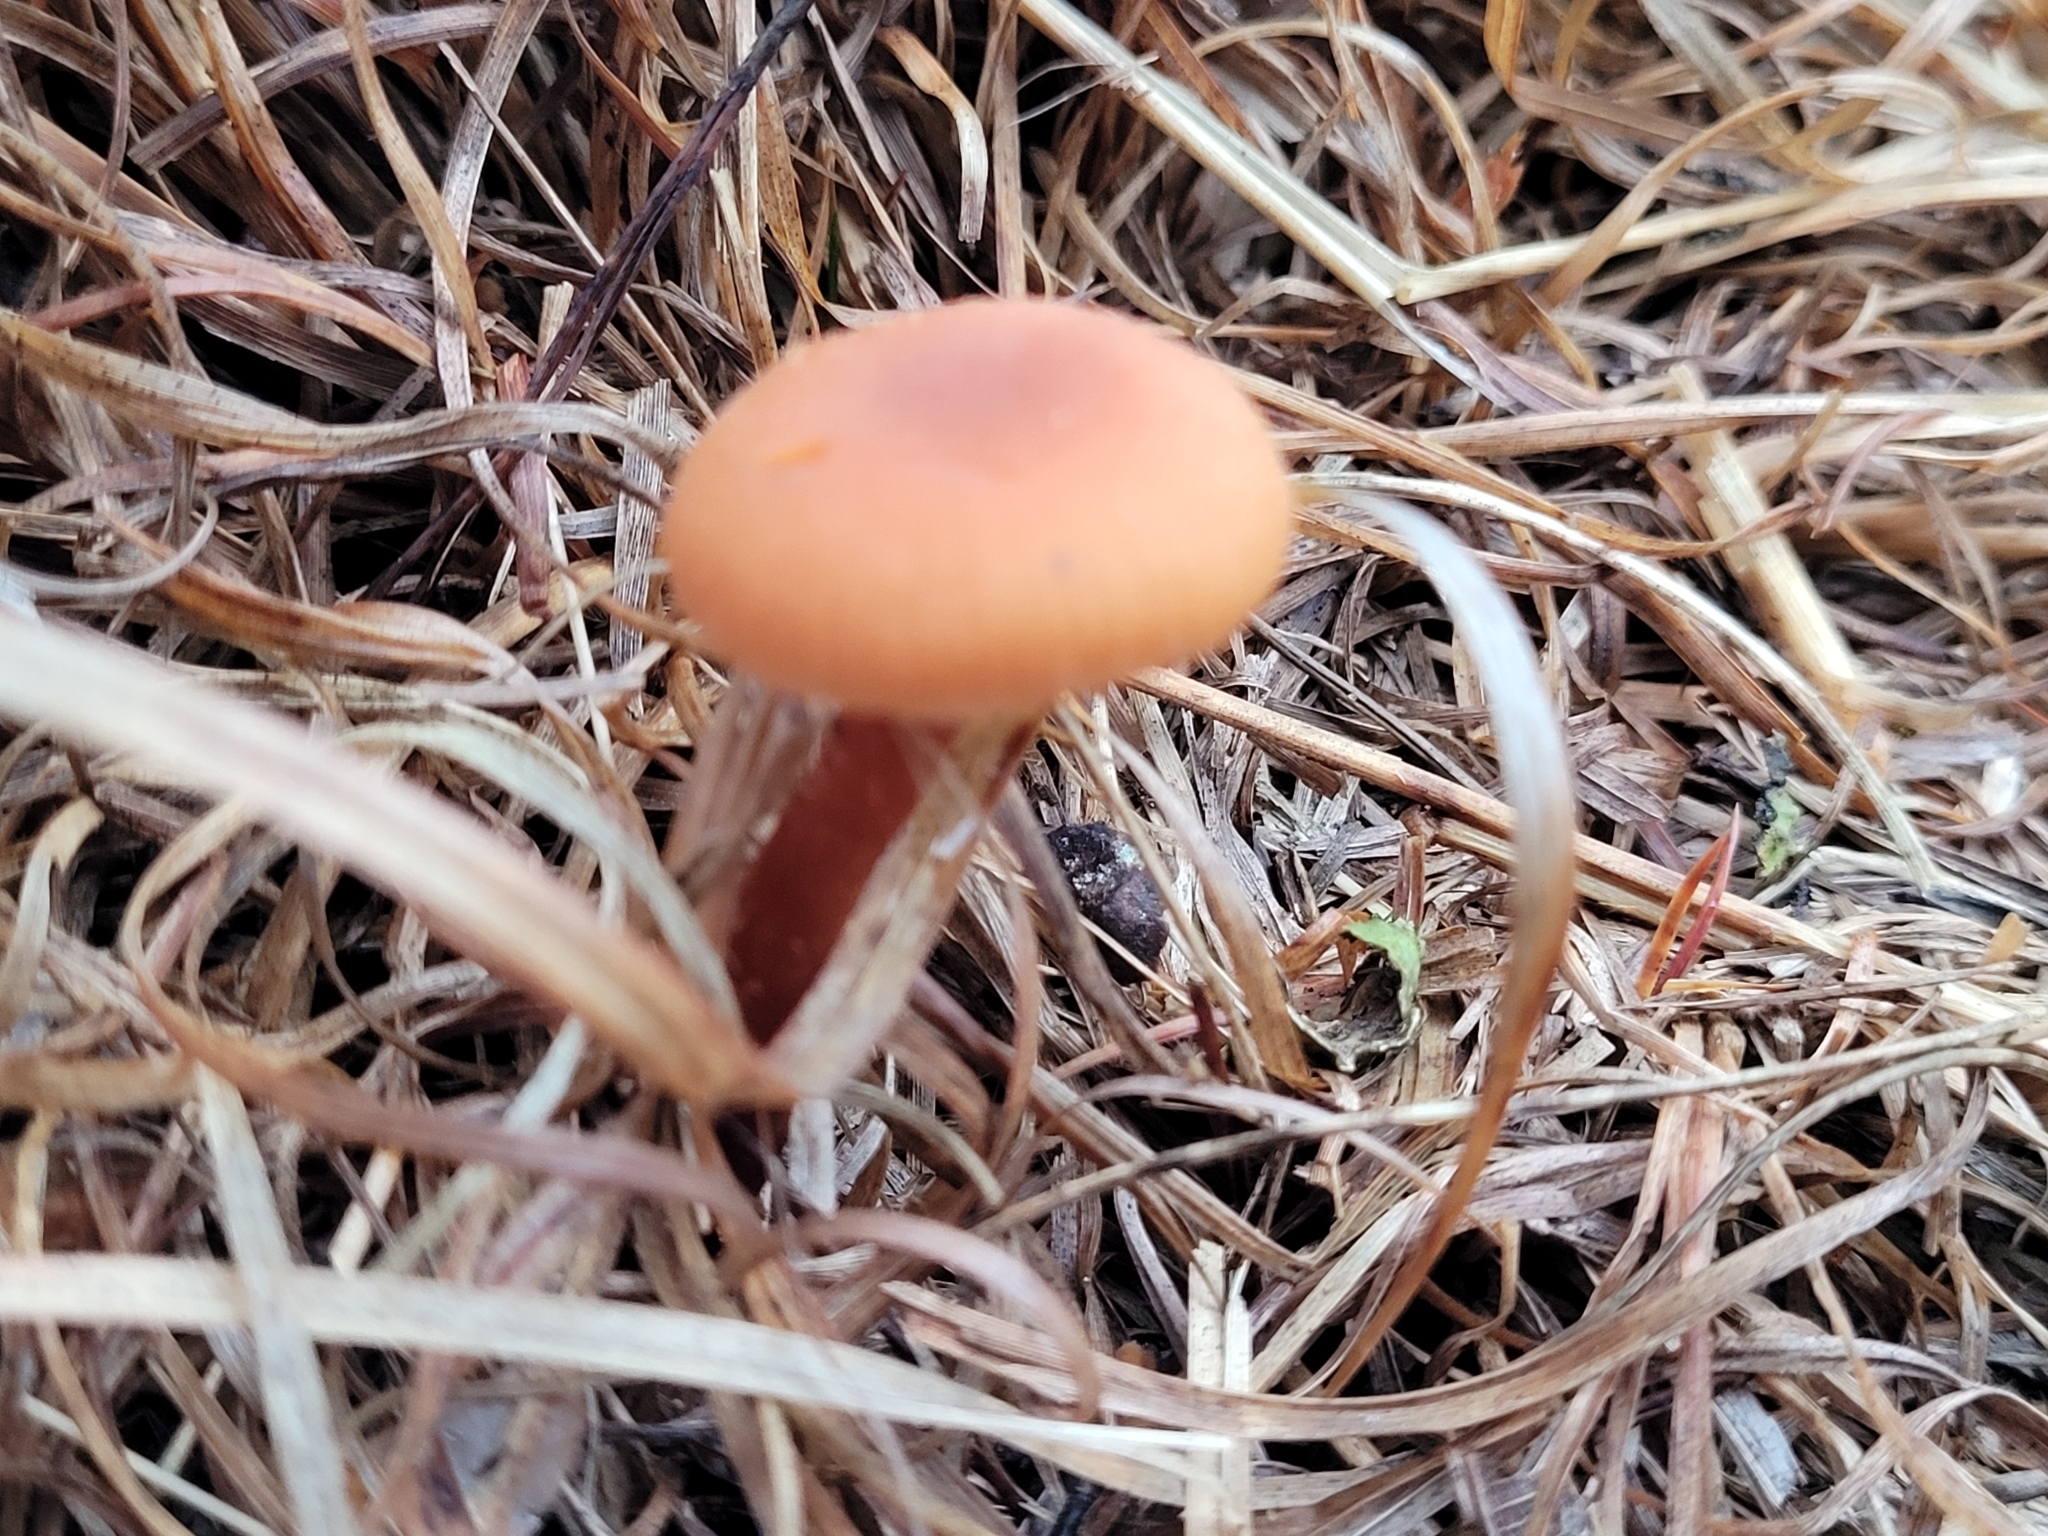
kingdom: Fungi
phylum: Basidiomycota
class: Agaricomycetes
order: Agaricales
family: Hydnangiaceae
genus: Laccaria
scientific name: Laccaria laccata
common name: Deceiver
